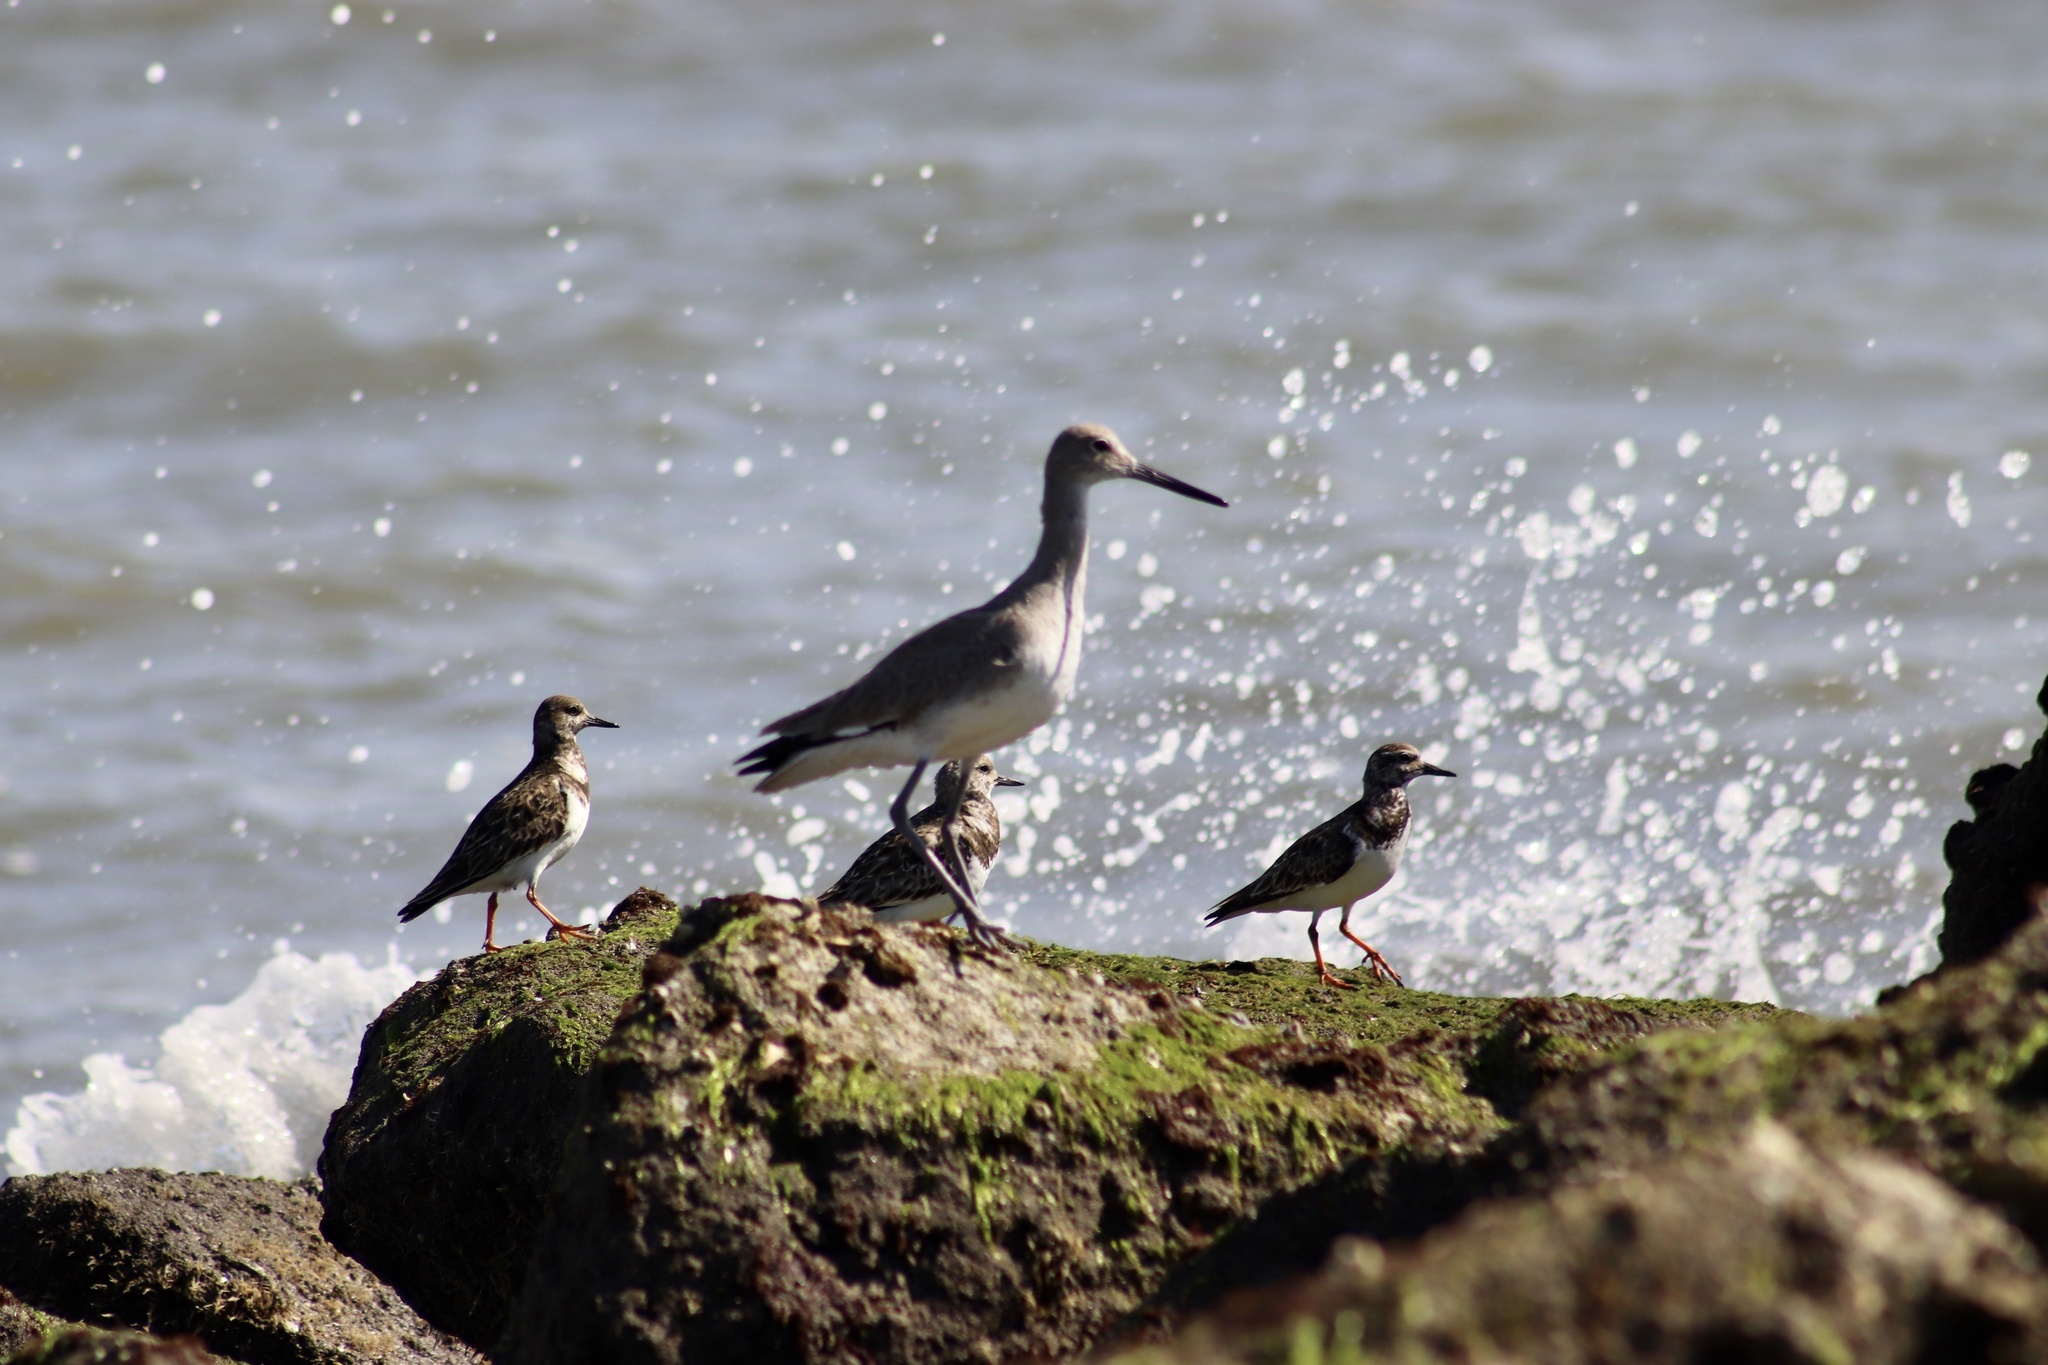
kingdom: Animalia
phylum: Chordata
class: Aves
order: Charadriiformes
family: Scolopacidae
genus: Tringa
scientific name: Tringa semipalmata
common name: Willet
